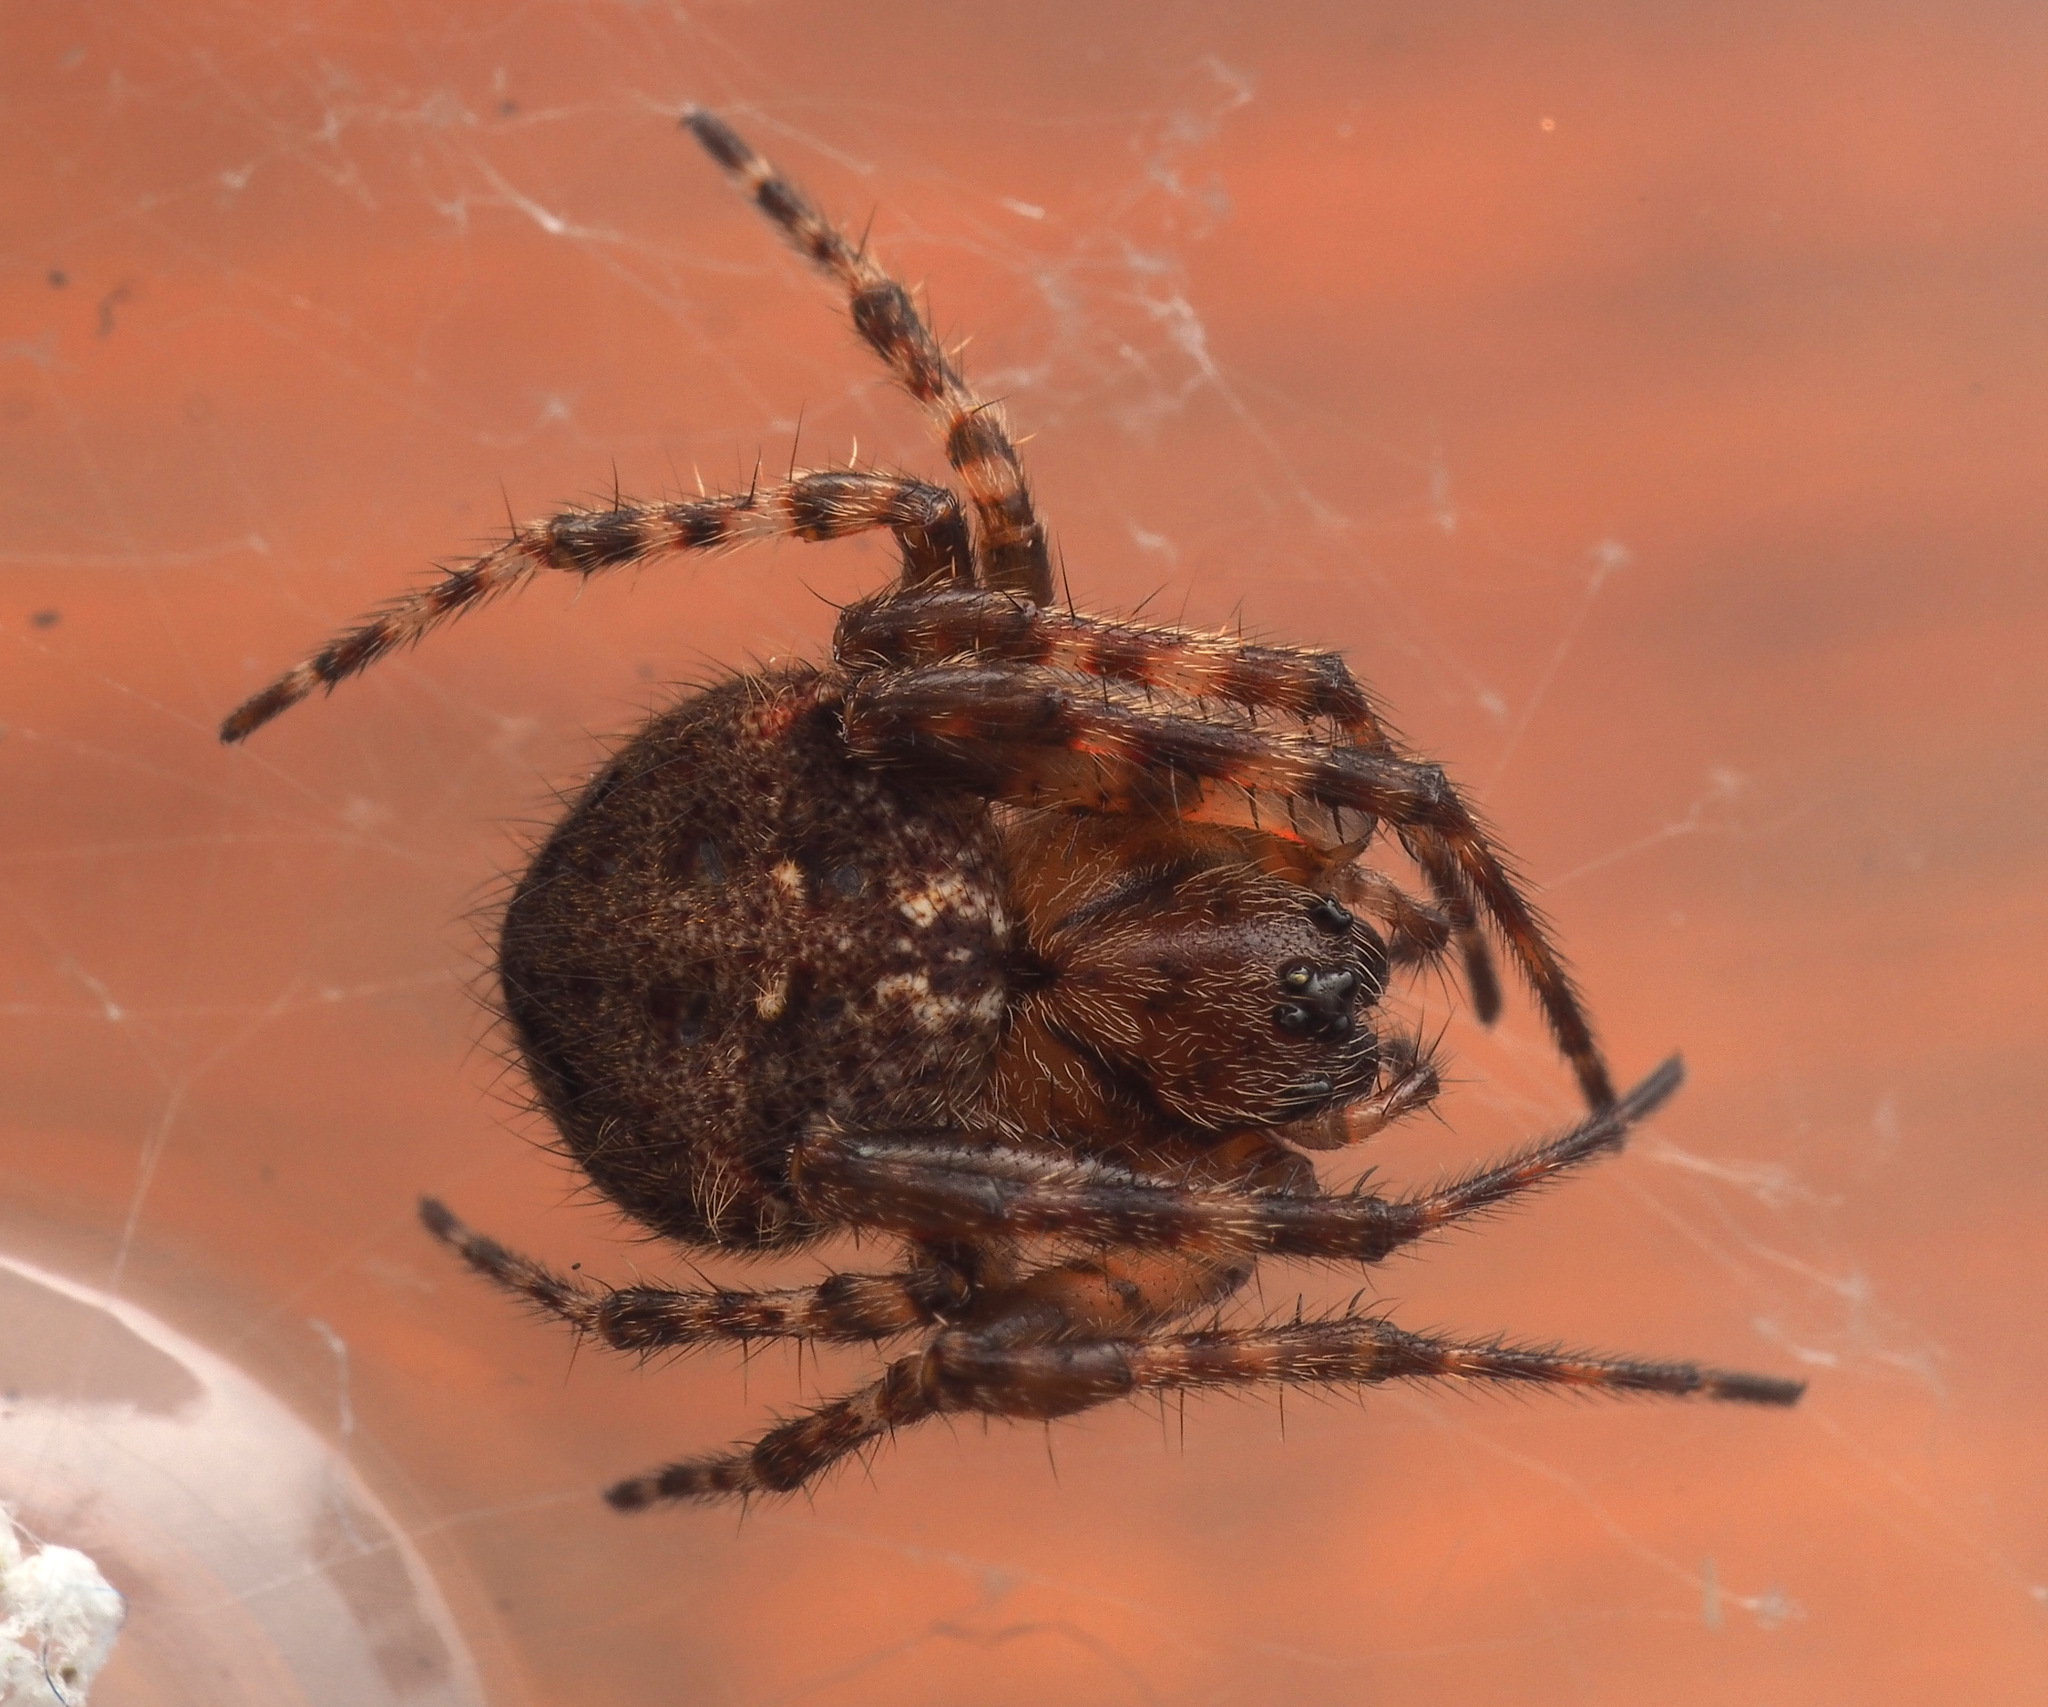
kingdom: Animalia
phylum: Arthropoda
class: Arachnida
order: Araneae
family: Araneidae
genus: Telaprocera
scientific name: Telaprocera maudae
